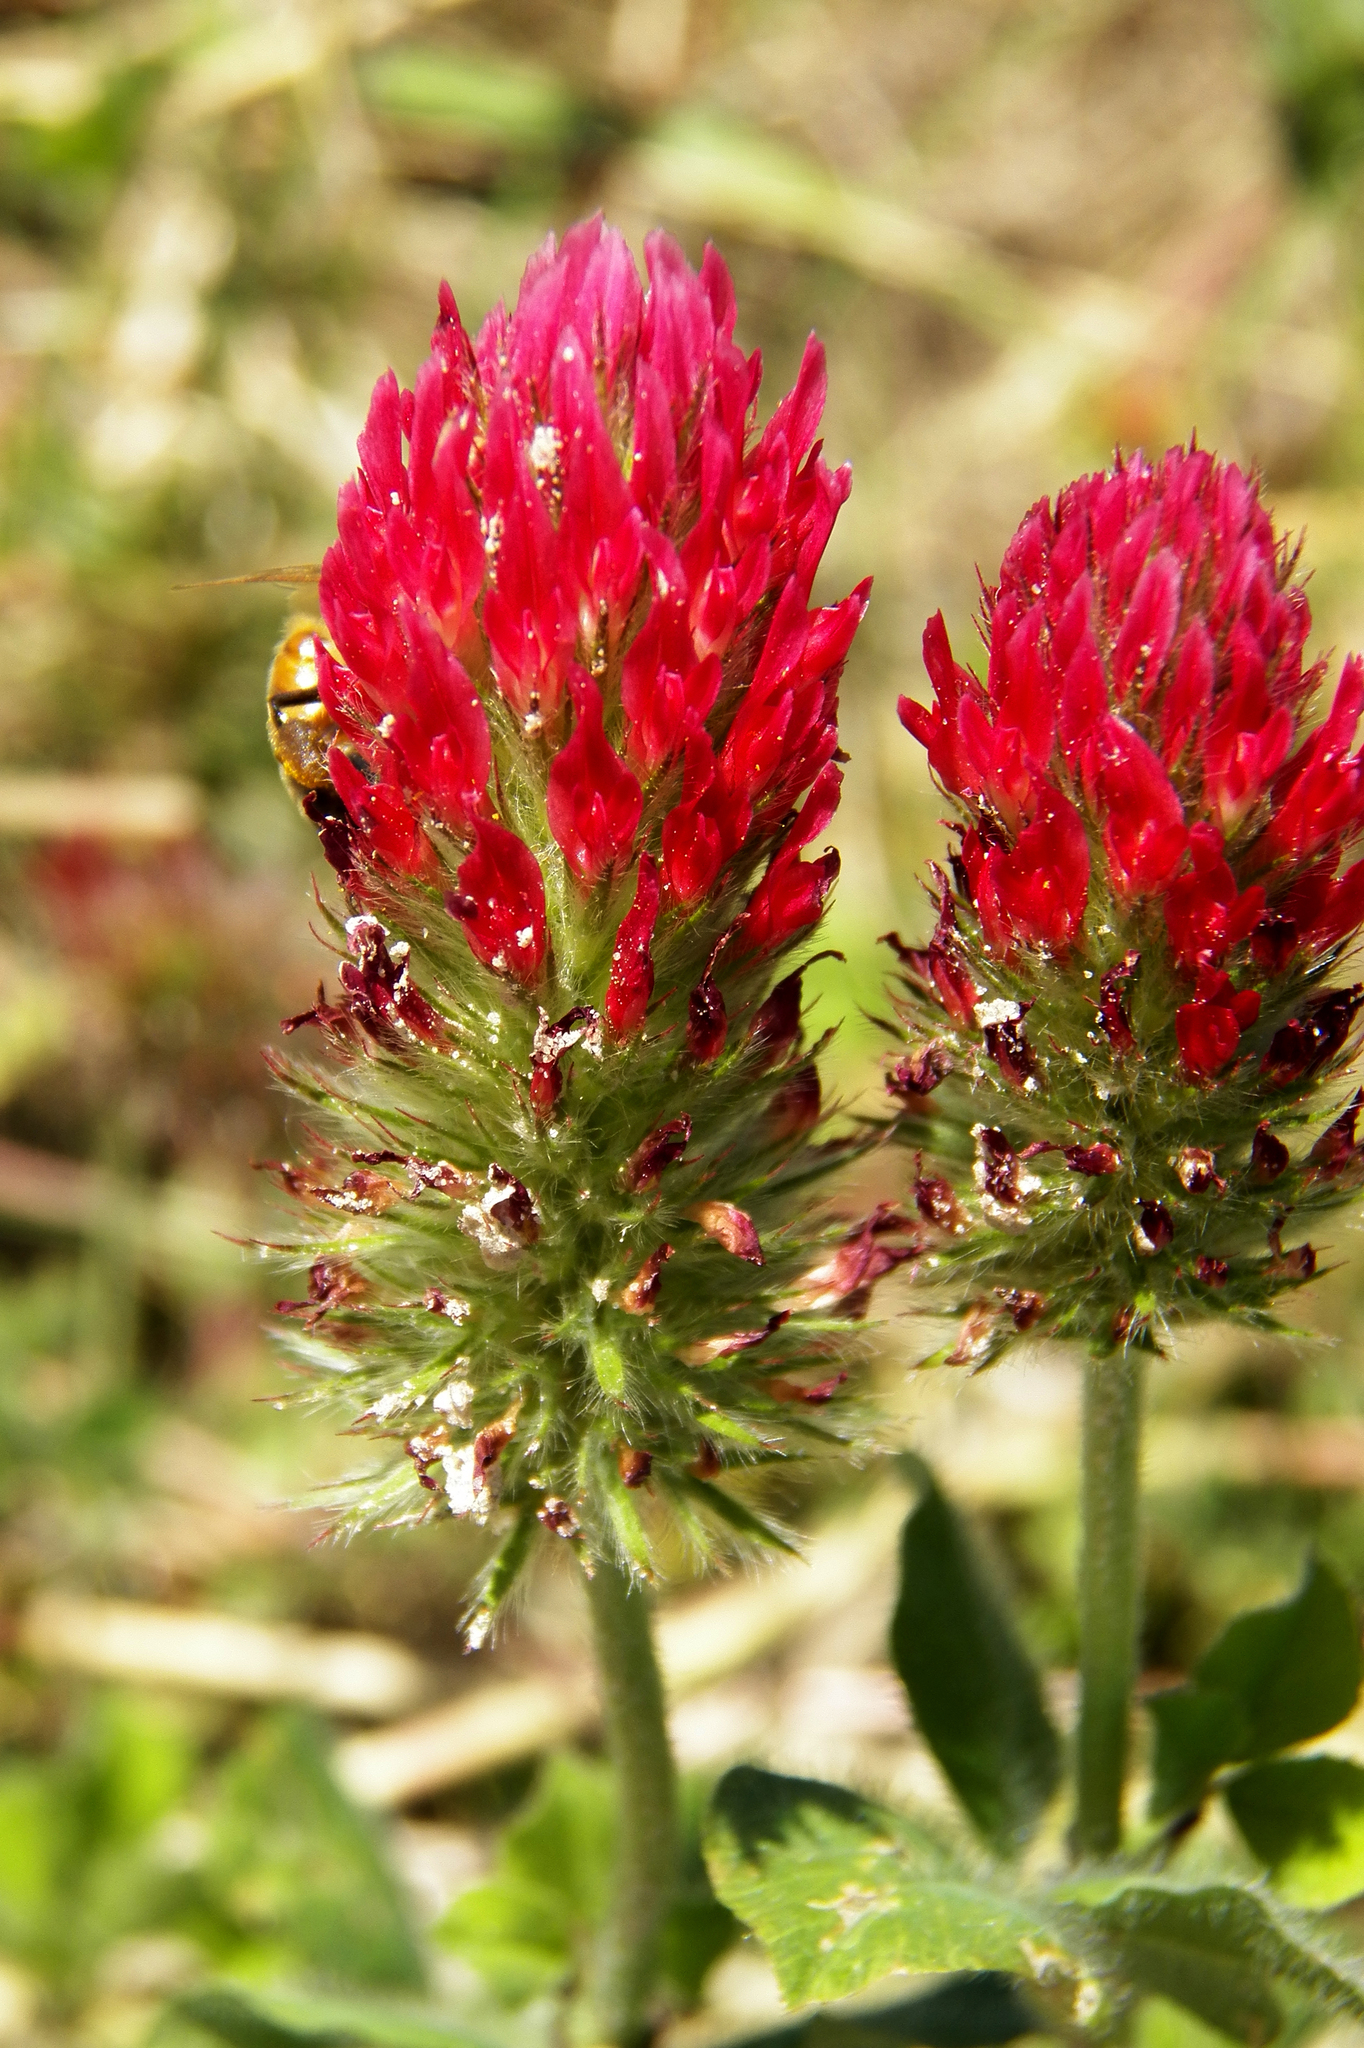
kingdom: Plantae
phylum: Tracheophyta
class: Magnoliopsida
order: Fabales
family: Fabaceae
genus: Trifolium
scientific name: Trifolium incarnatum
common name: Crimson clover
